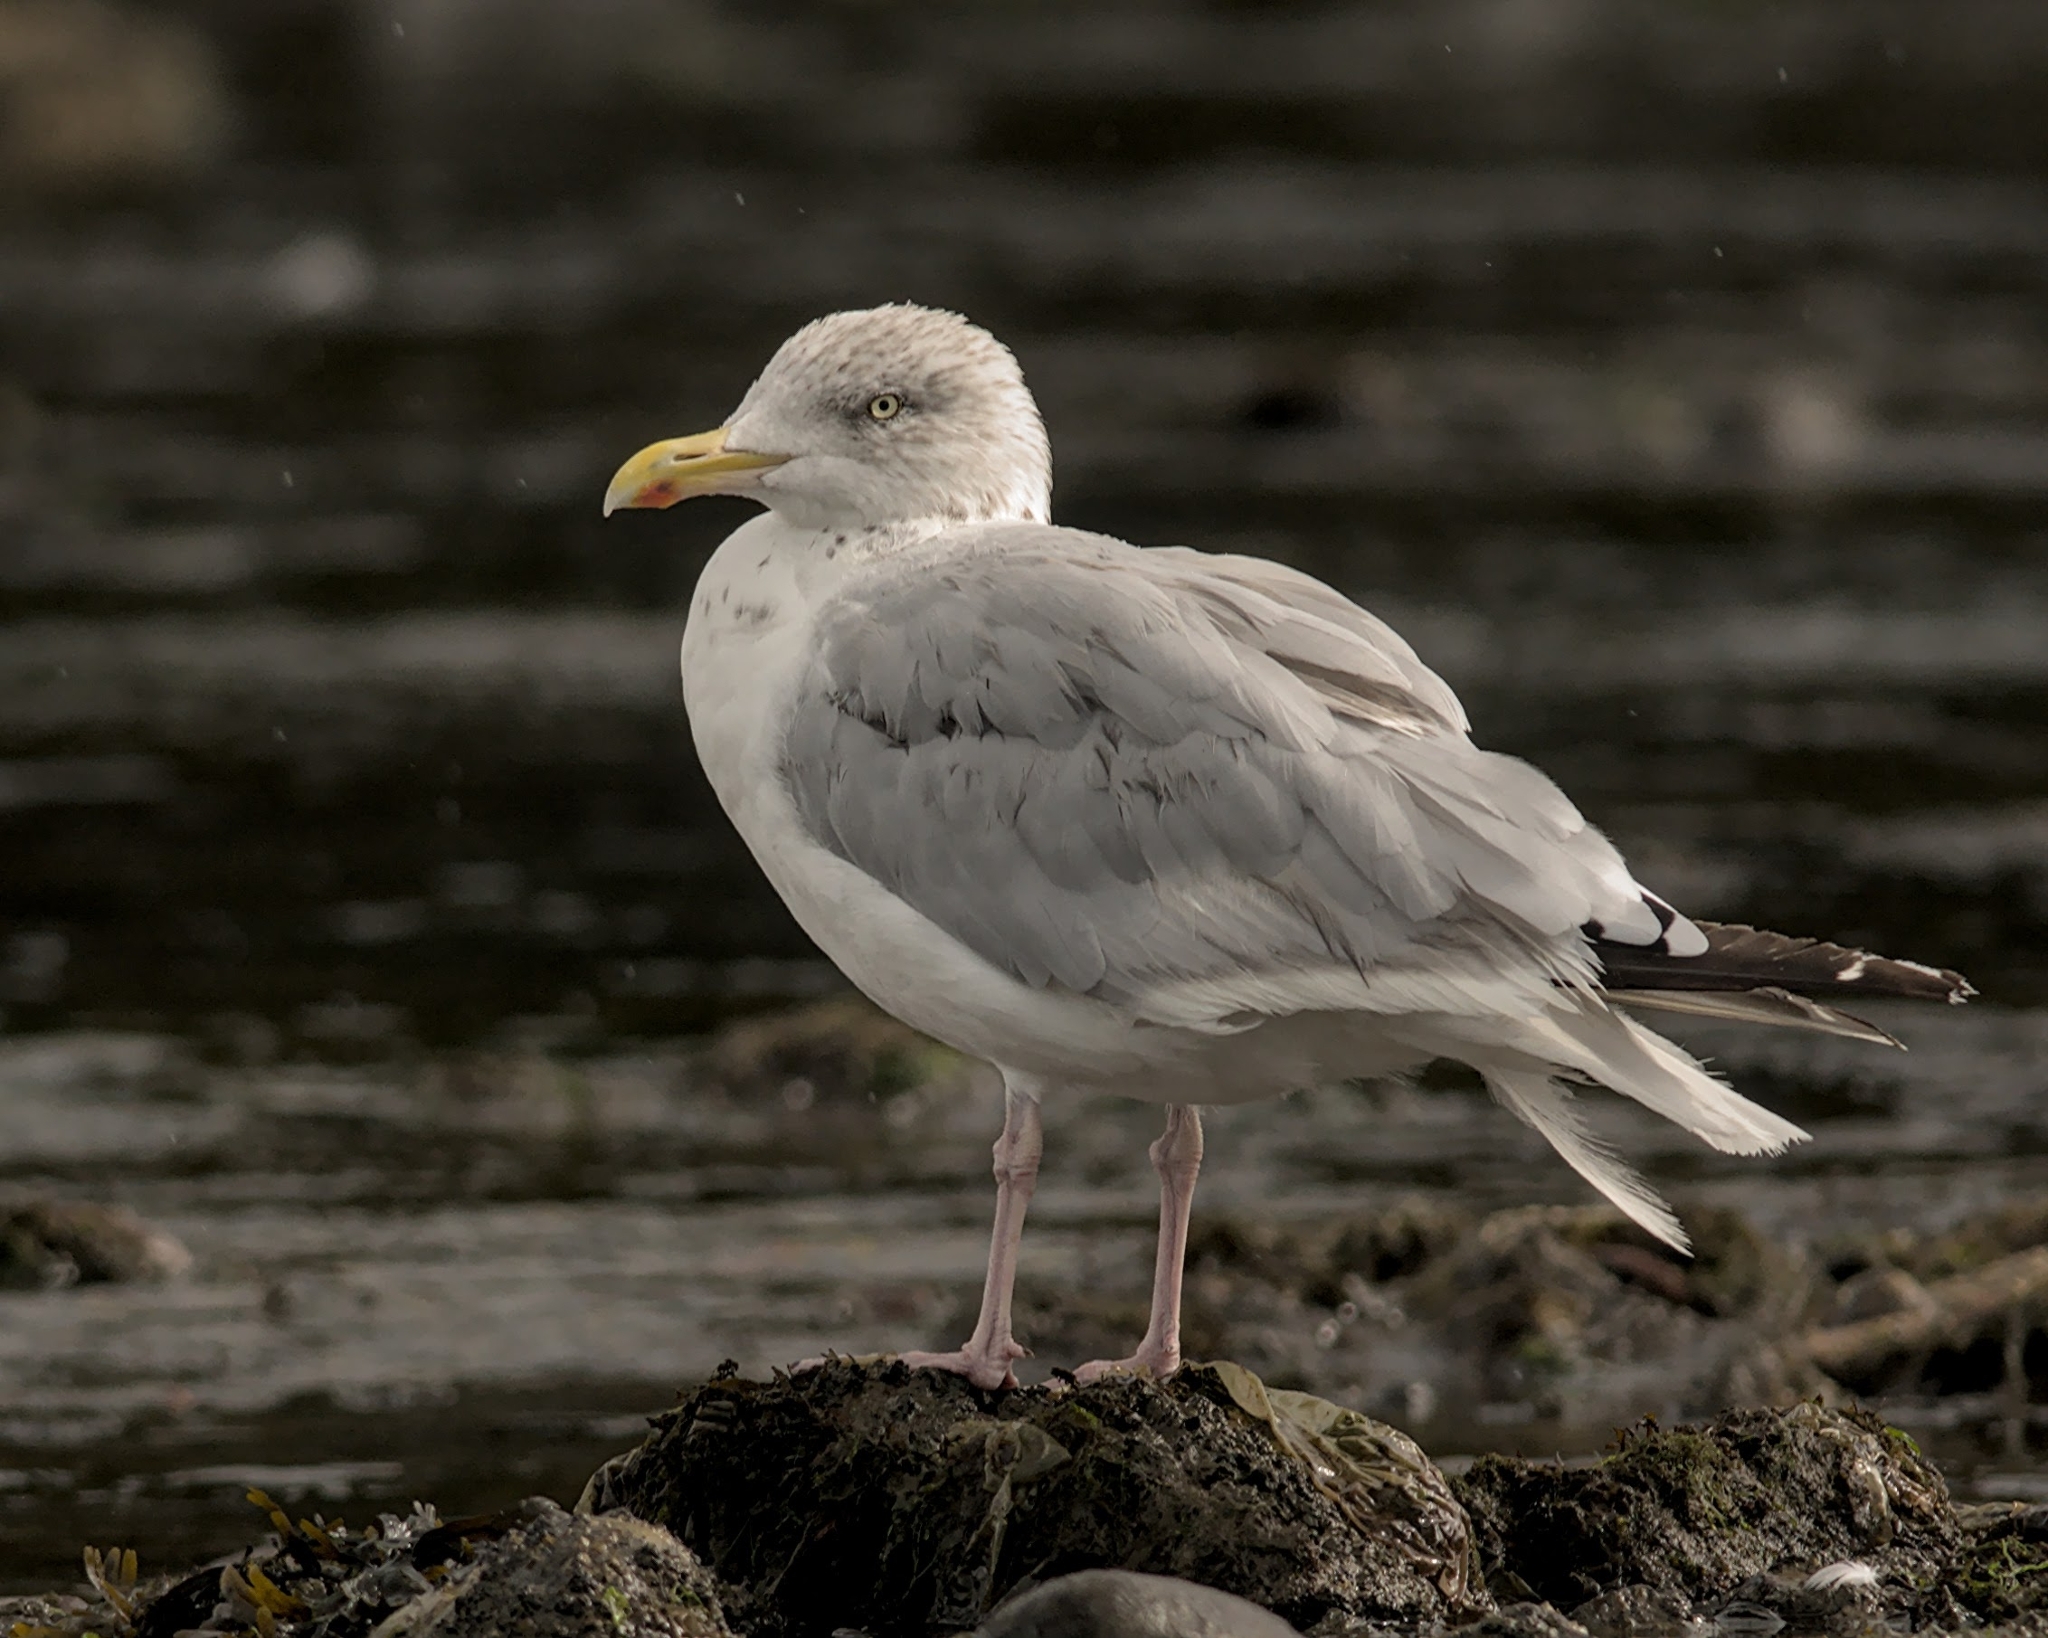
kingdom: Animalia
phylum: Chordata
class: Aves
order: Charadriiformes
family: Laridae
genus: Larus
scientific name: Larus argentatus
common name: Herring gull
